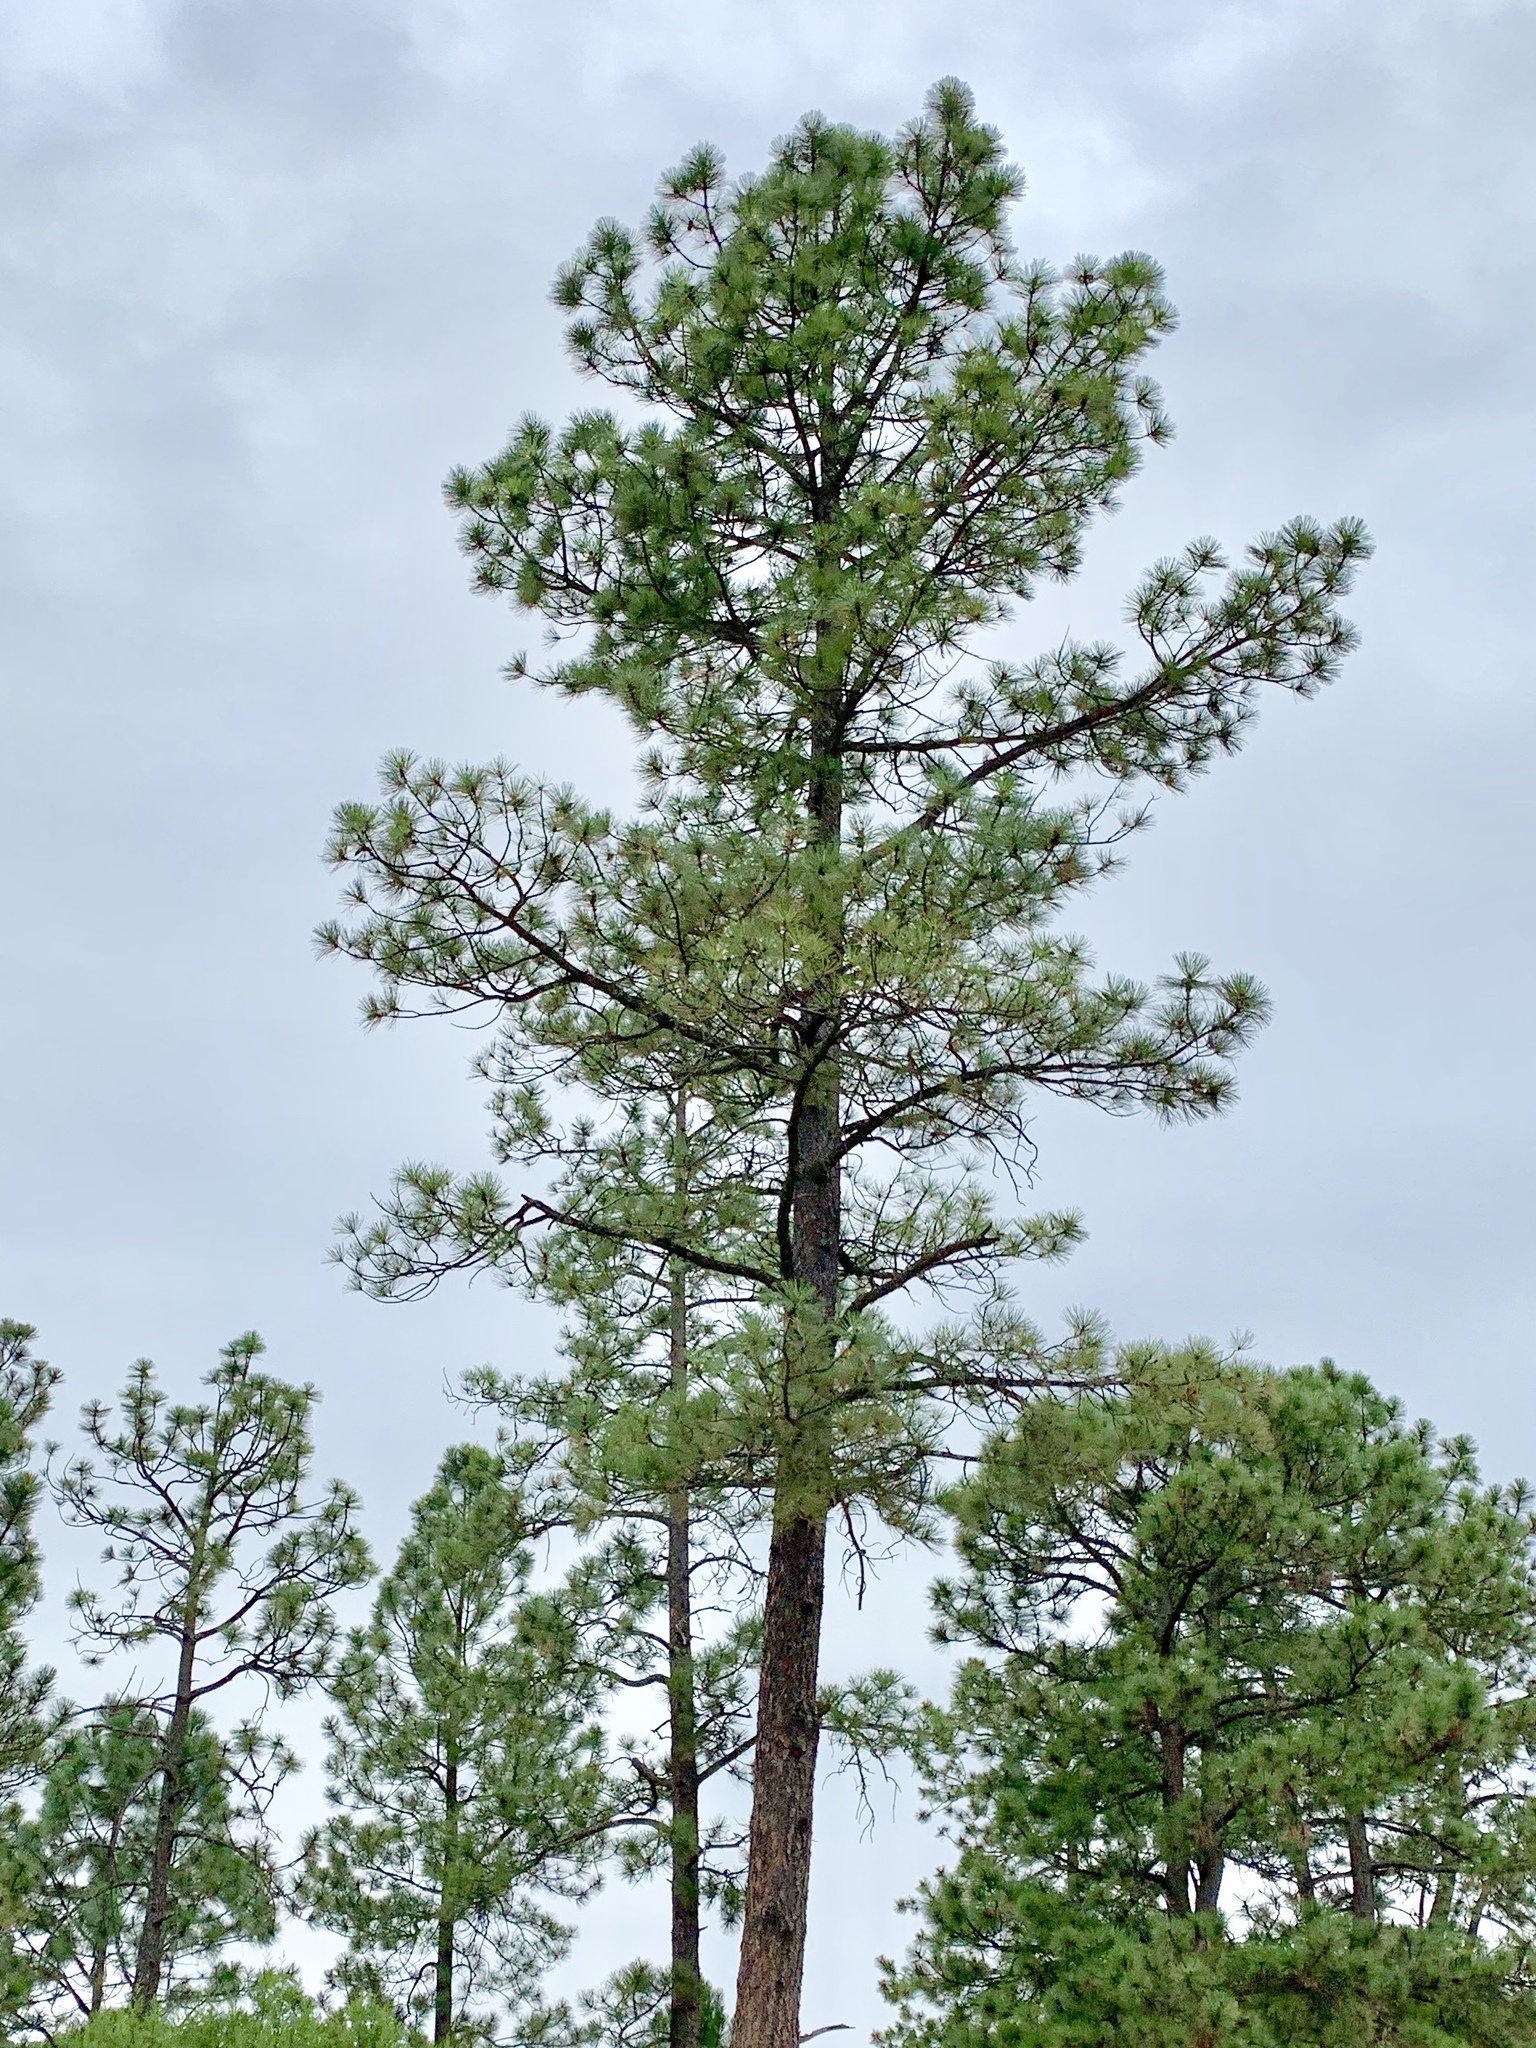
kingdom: Plantae
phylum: Tracheophyta
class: Pinopsida
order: Pinales
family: Pinaceae
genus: Pinus
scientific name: Pinus ponderosa
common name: Western yellow-pine
